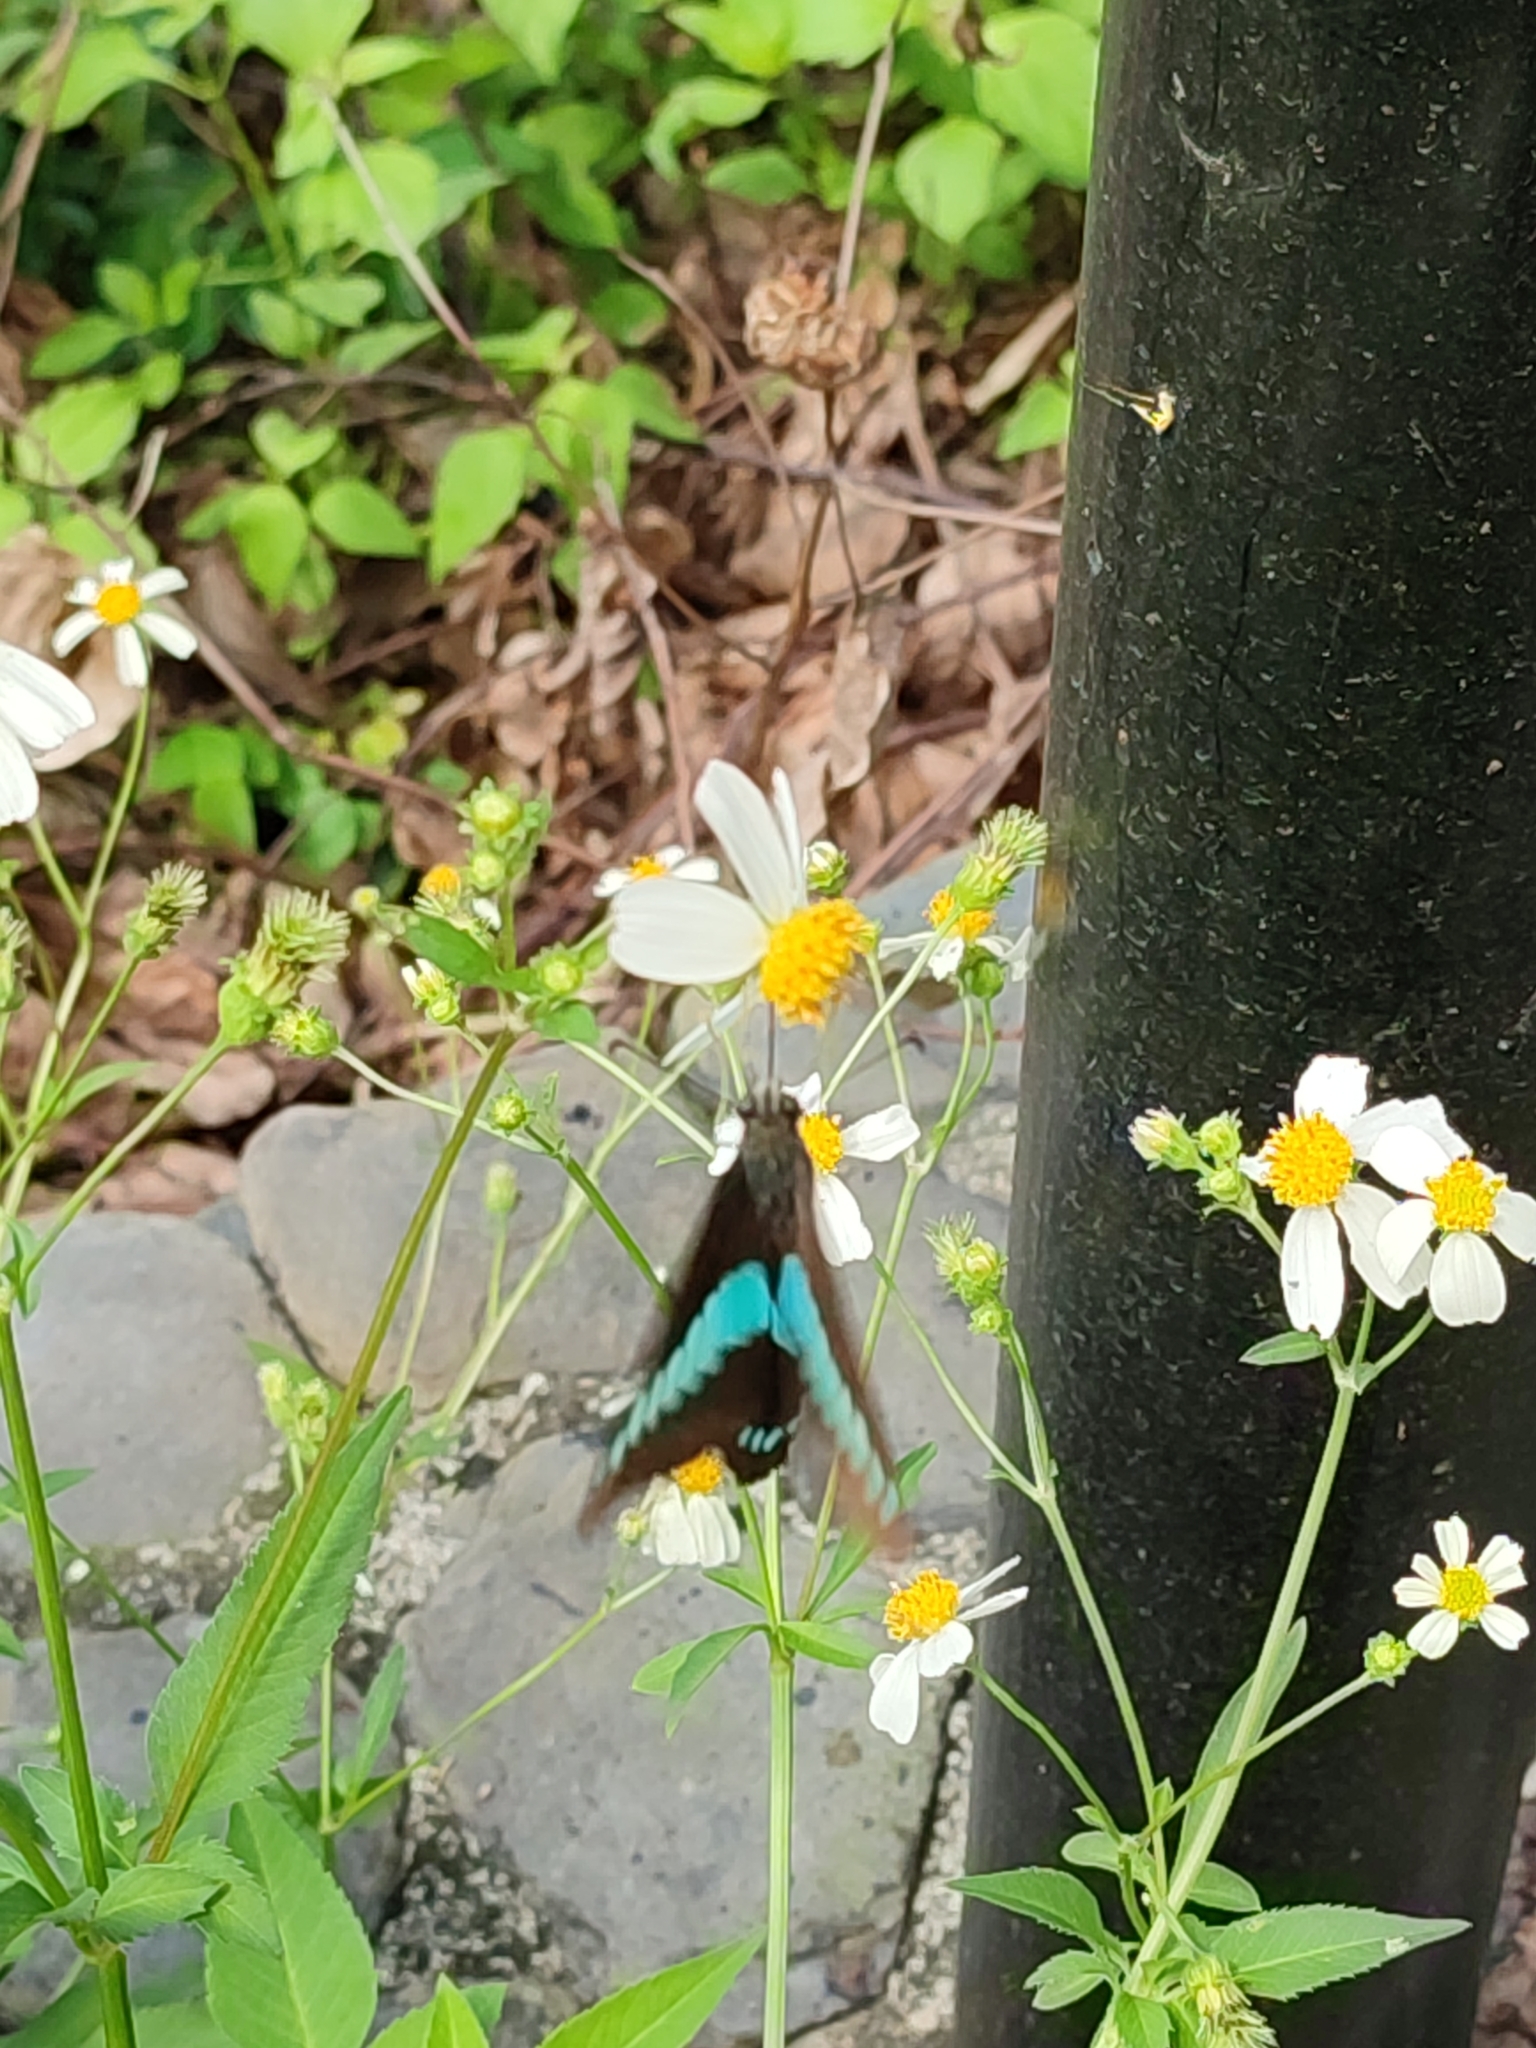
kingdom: Fungi
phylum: Ascomycota
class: Sordariomycetes
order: Microascales
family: Microascaceae
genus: Graphium
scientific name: Graphium sarpedon
